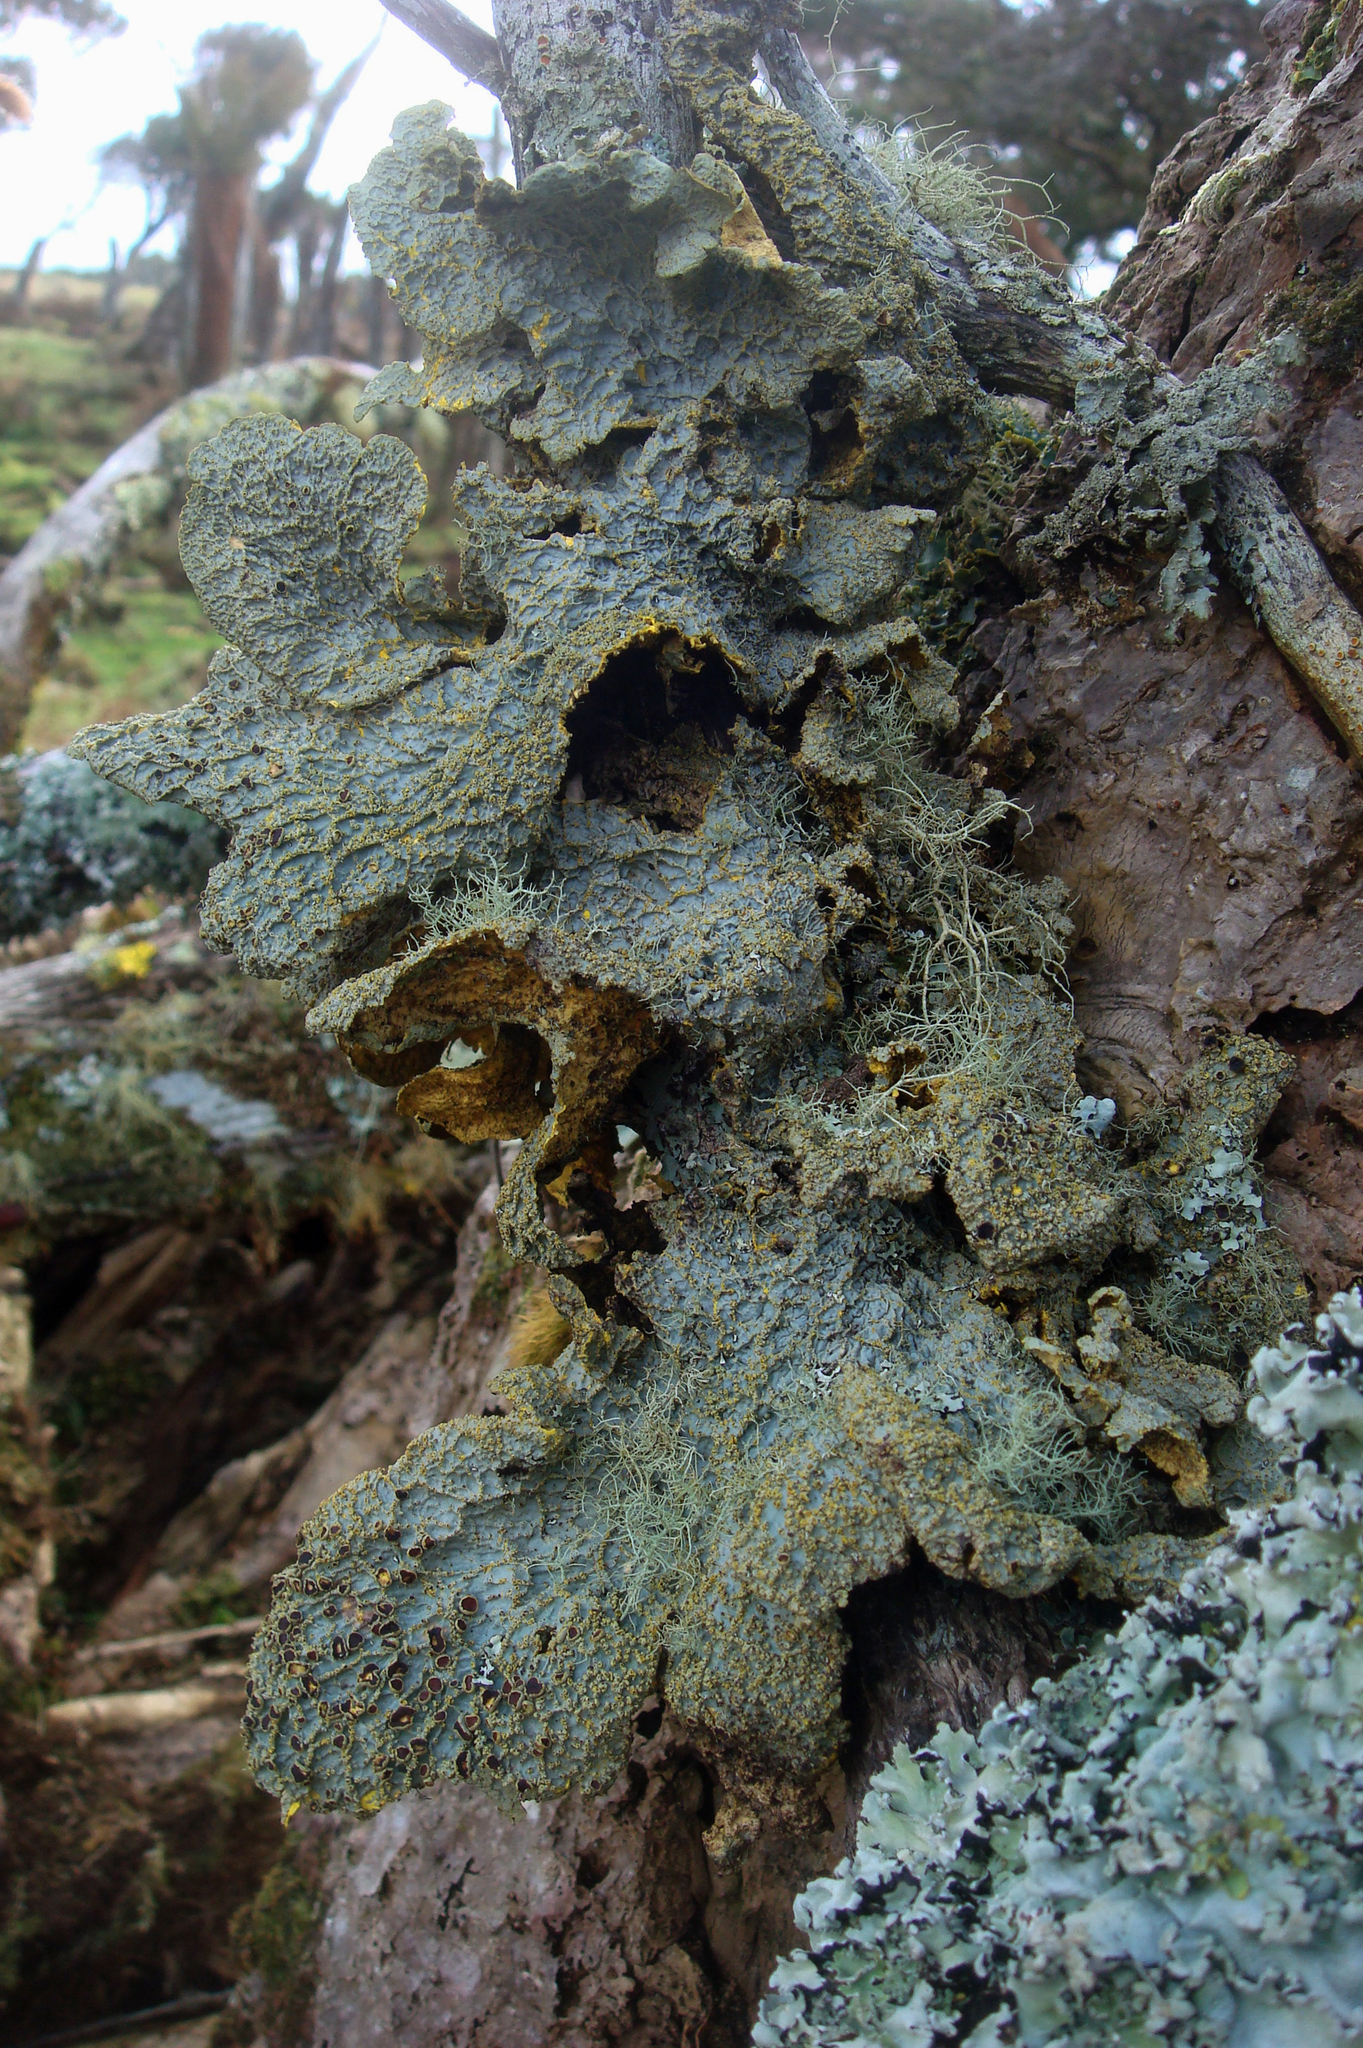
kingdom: Fungi
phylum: Ascomycota
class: Lecanoromycetes
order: Peltigerales
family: Lobariaceae
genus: Yarrumia
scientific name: Yarrumia coronata
